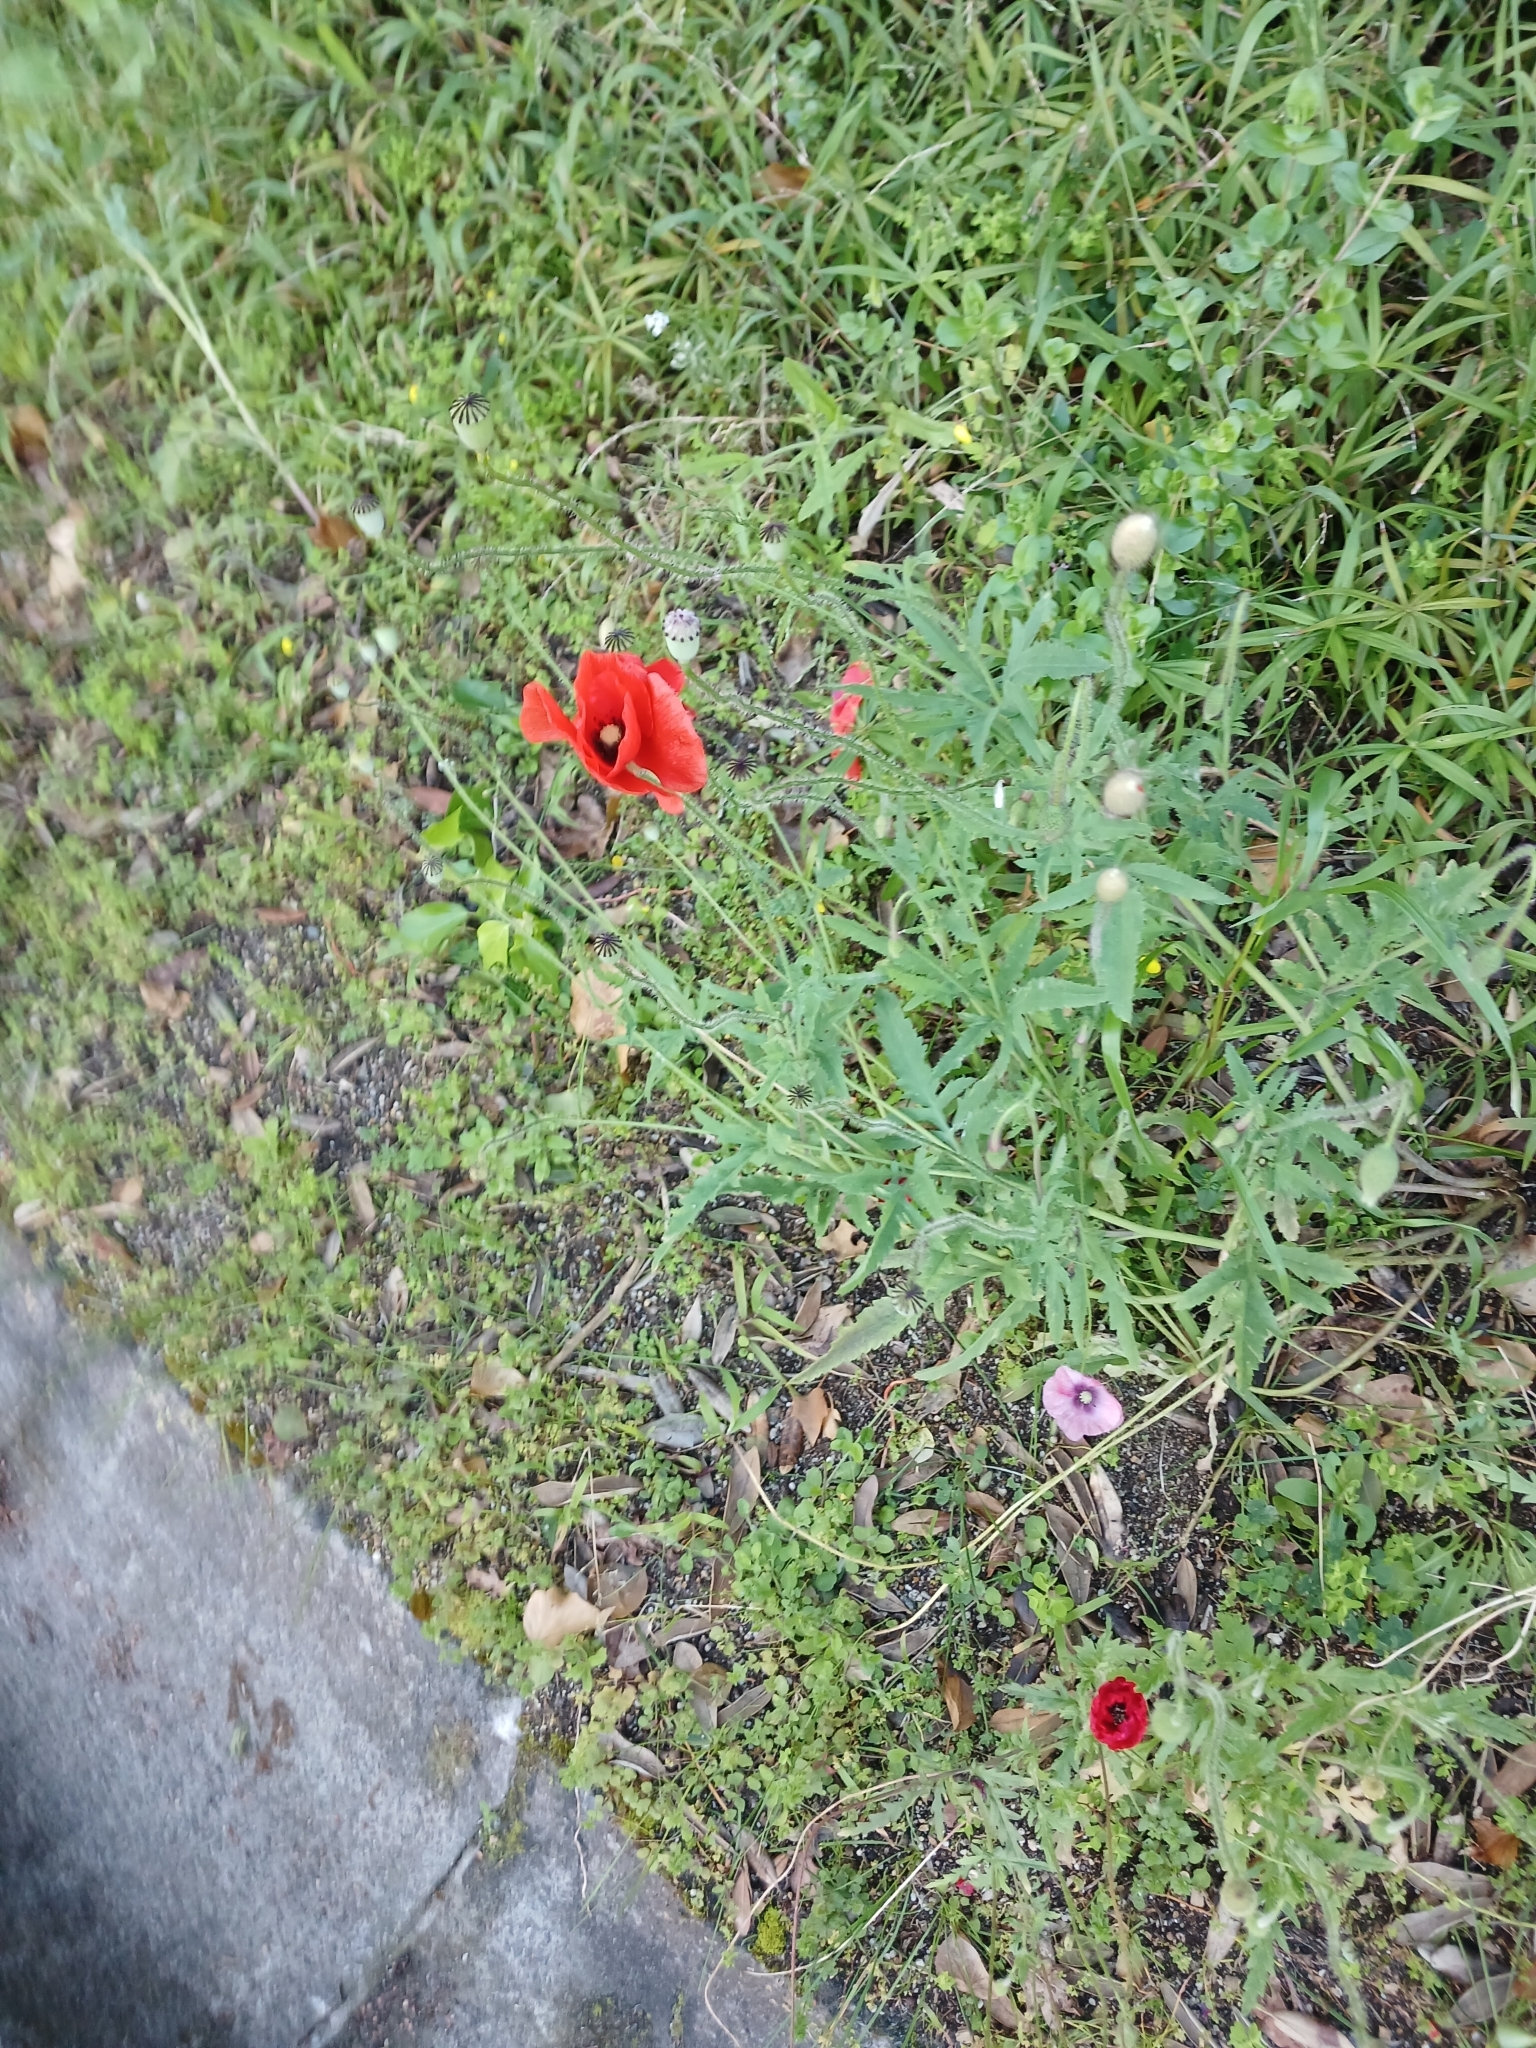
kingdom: Plantae
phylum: Tracheophyta
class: Magnoliopsida
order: Ranunculales
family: Papaveraceae
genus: Papaver
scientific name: Papaver rhoeas
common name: Corn poppy
